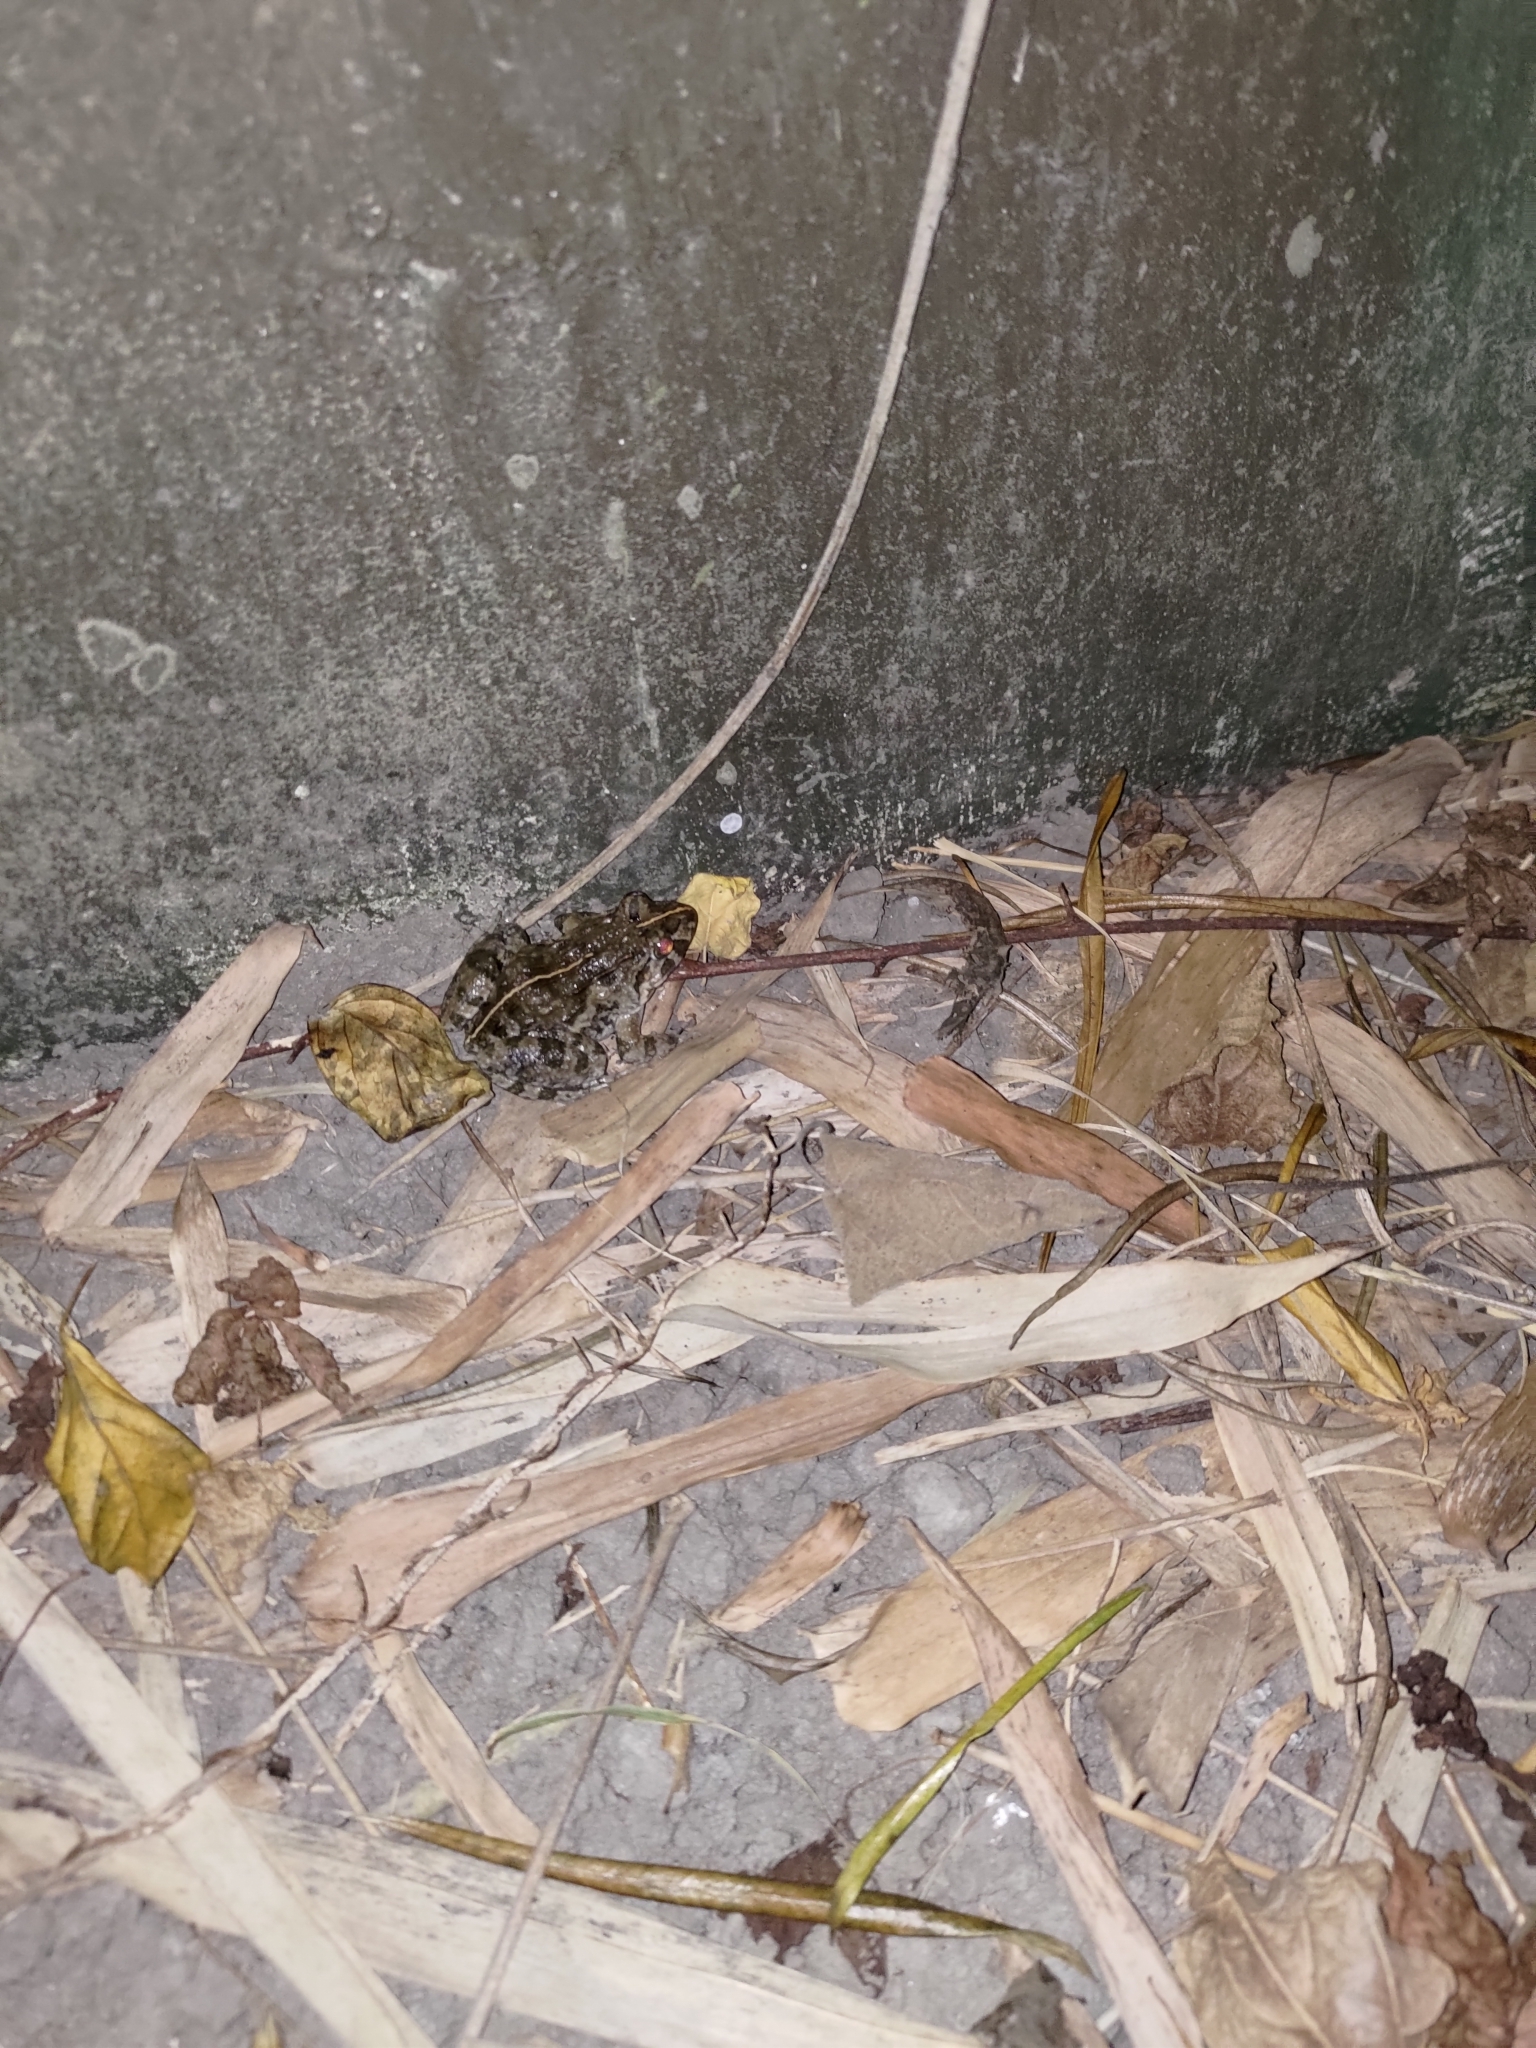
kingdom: Animalia
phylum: Chordata
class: Amphibia
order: Anura
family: Dicroglossidae
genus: Fejervarya
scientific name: Fejervarya limnocharis
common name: Asian grass frog/common pond frog/field frog/grass frog/indian rice frog
